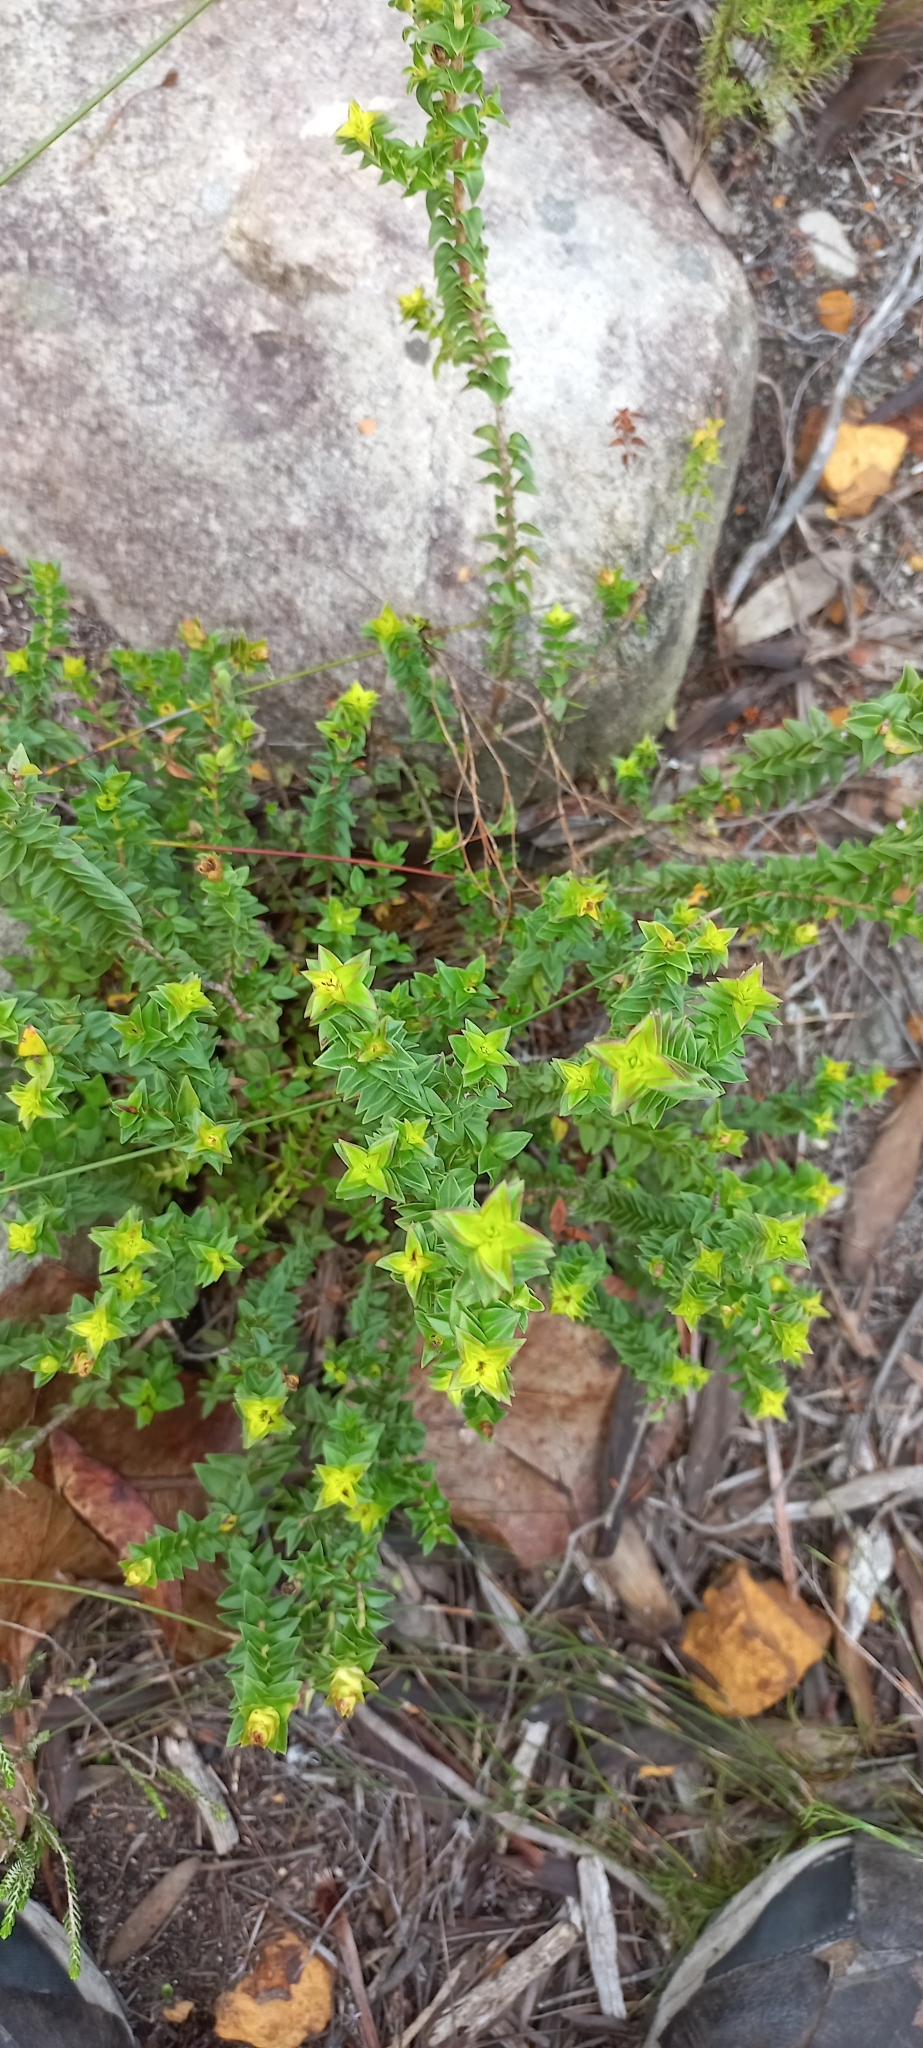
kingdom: Plantae
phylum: Tracheophyta
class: Magnoliopsida
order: Myrtales
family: Penaeaceae
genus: Penaea
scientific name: Penaea mucronata
